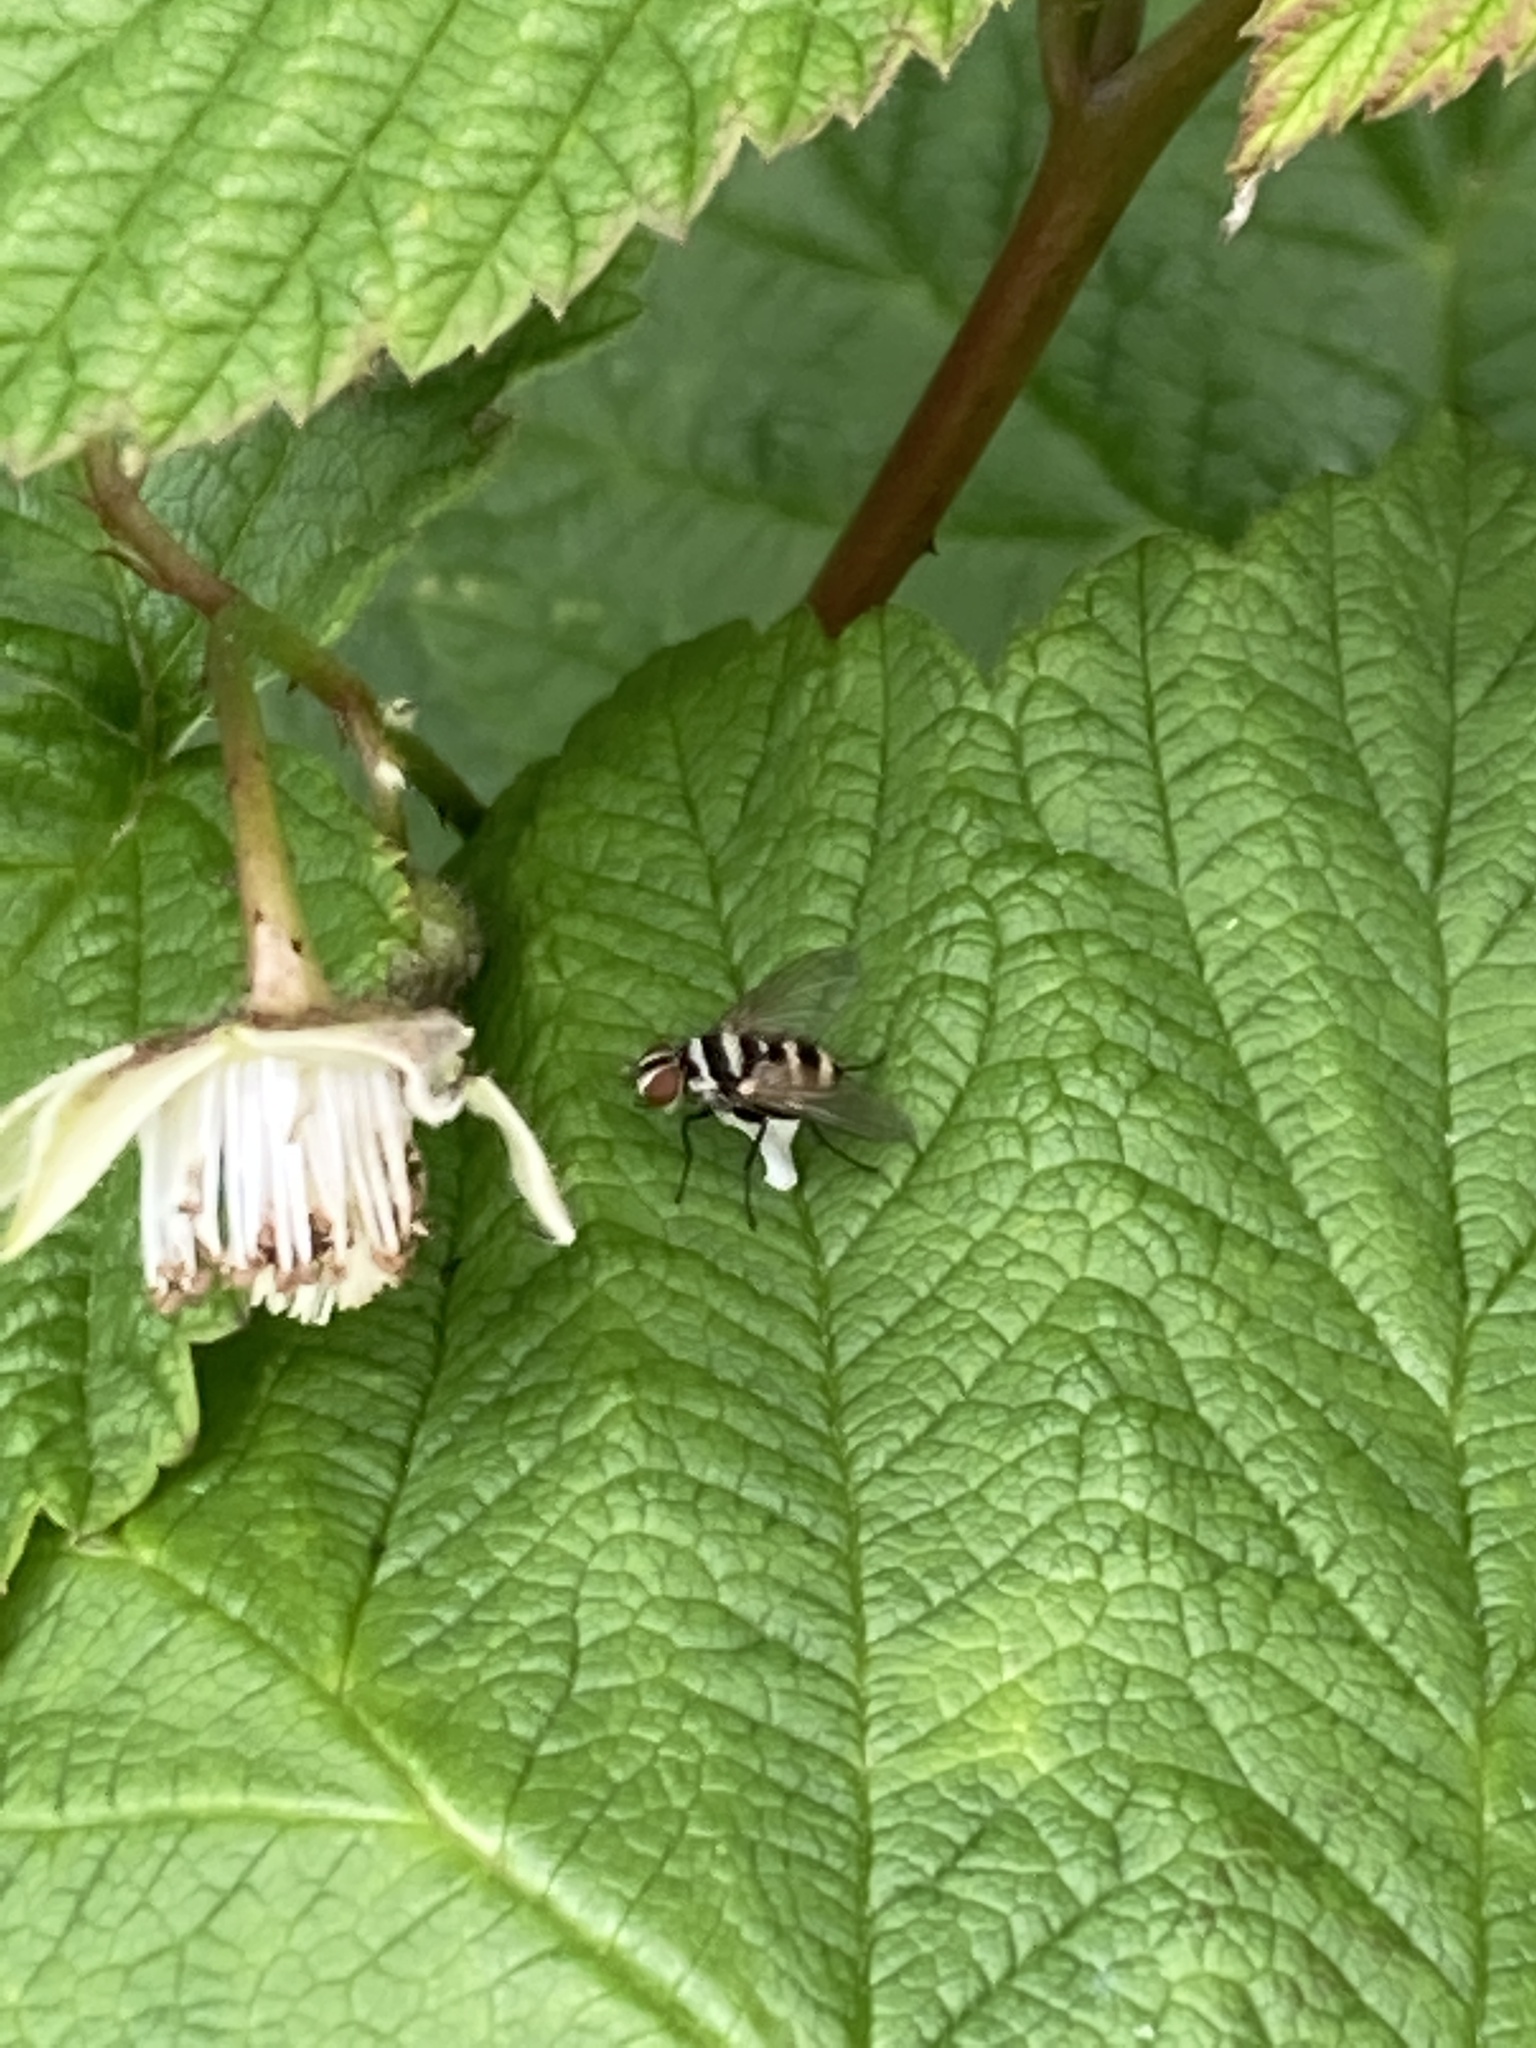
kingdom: Animalia
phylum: Arthropoda
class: Insecta
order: Diptera
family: Tachinidae
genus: Trigonospila
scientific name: Trigonospila brevifacies
